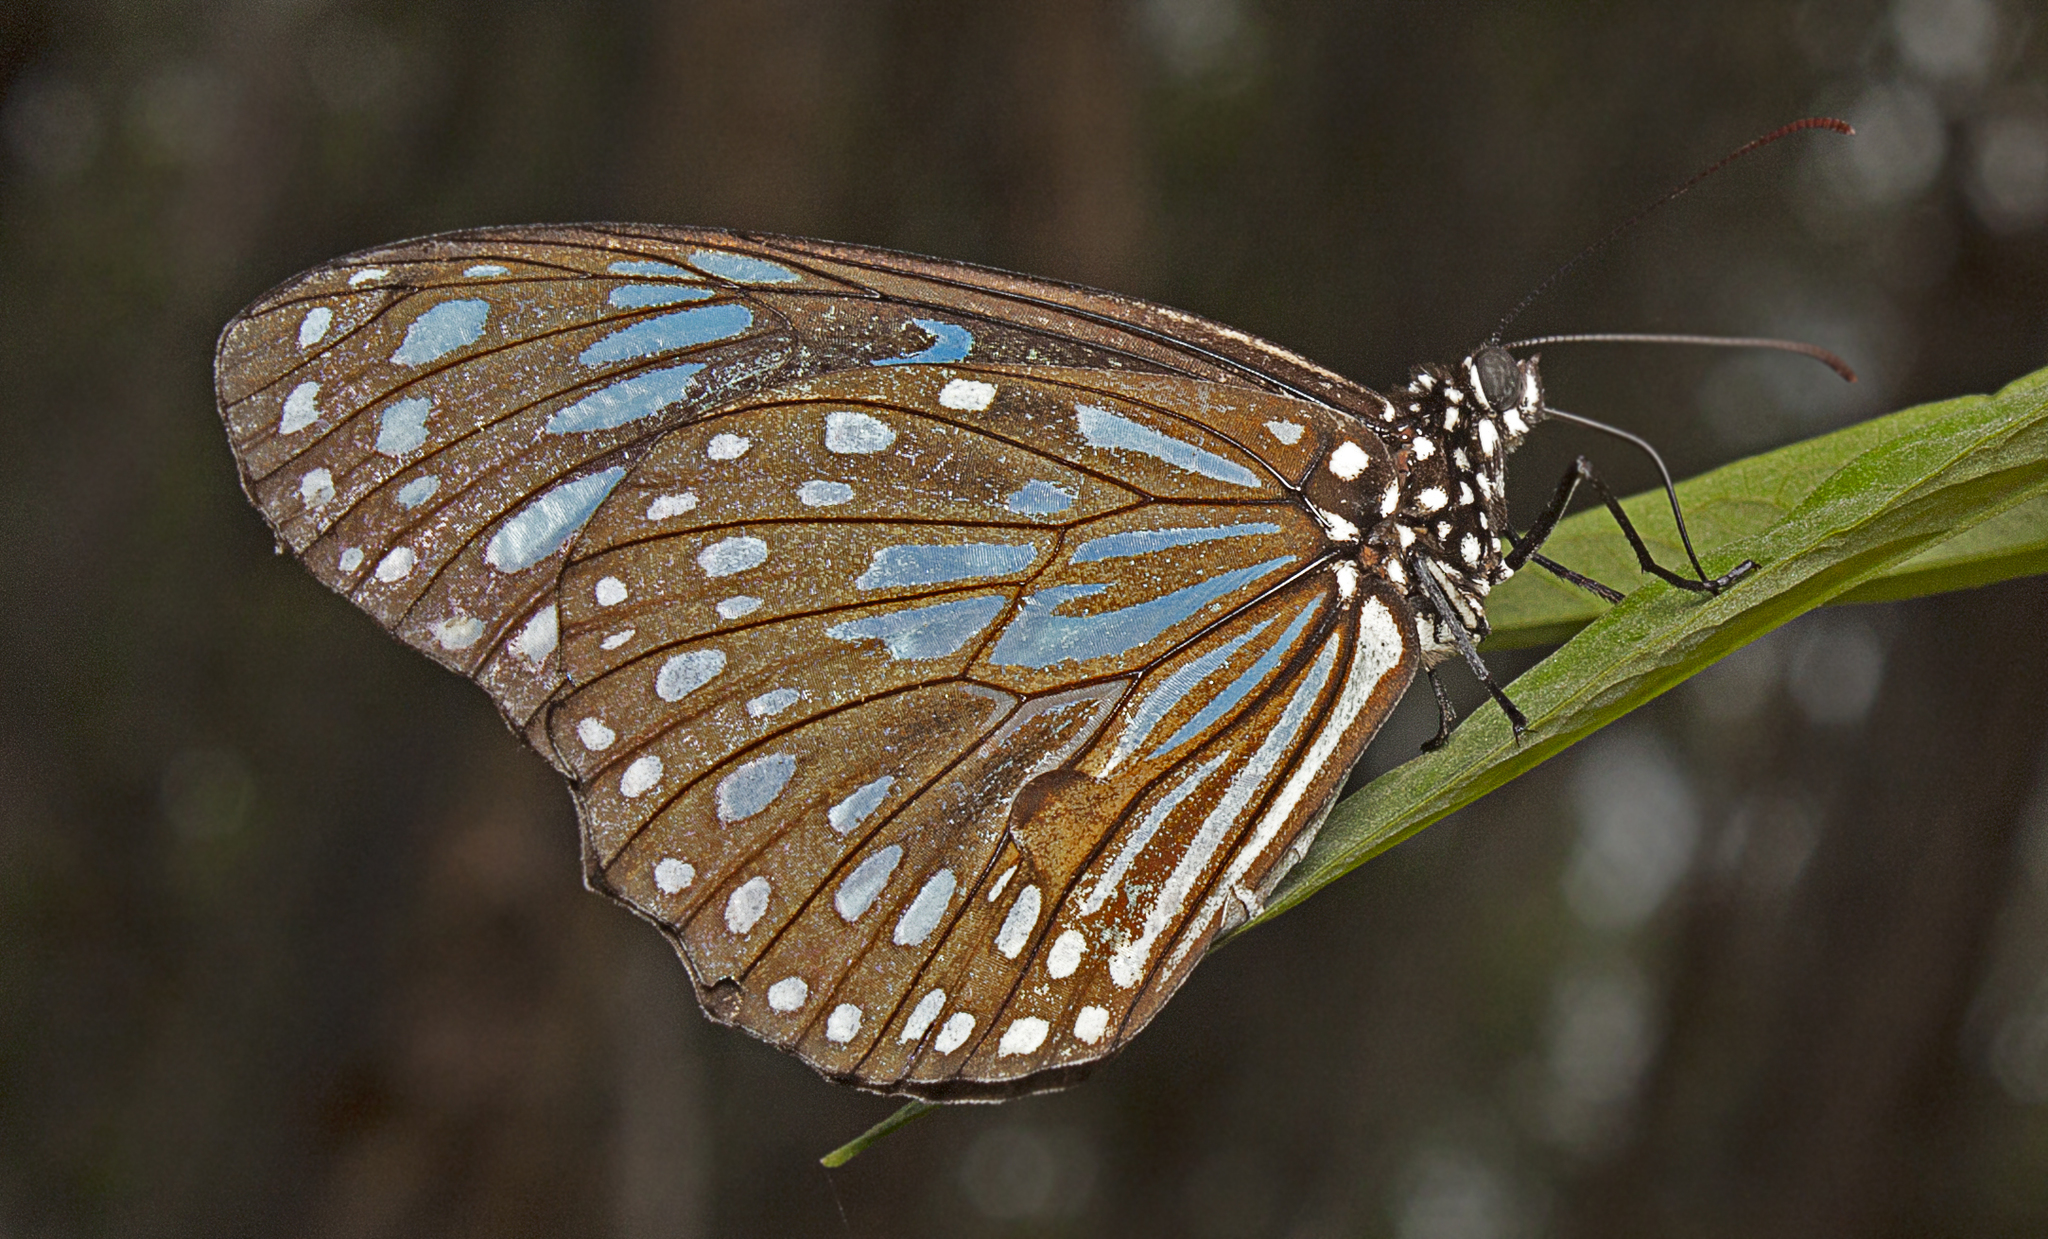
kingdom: Animalia
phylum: Arthropoda
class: Insecta
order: Lepidoptera
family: Nymphalidae
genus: Tirumala
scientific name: Tirumala hamata
